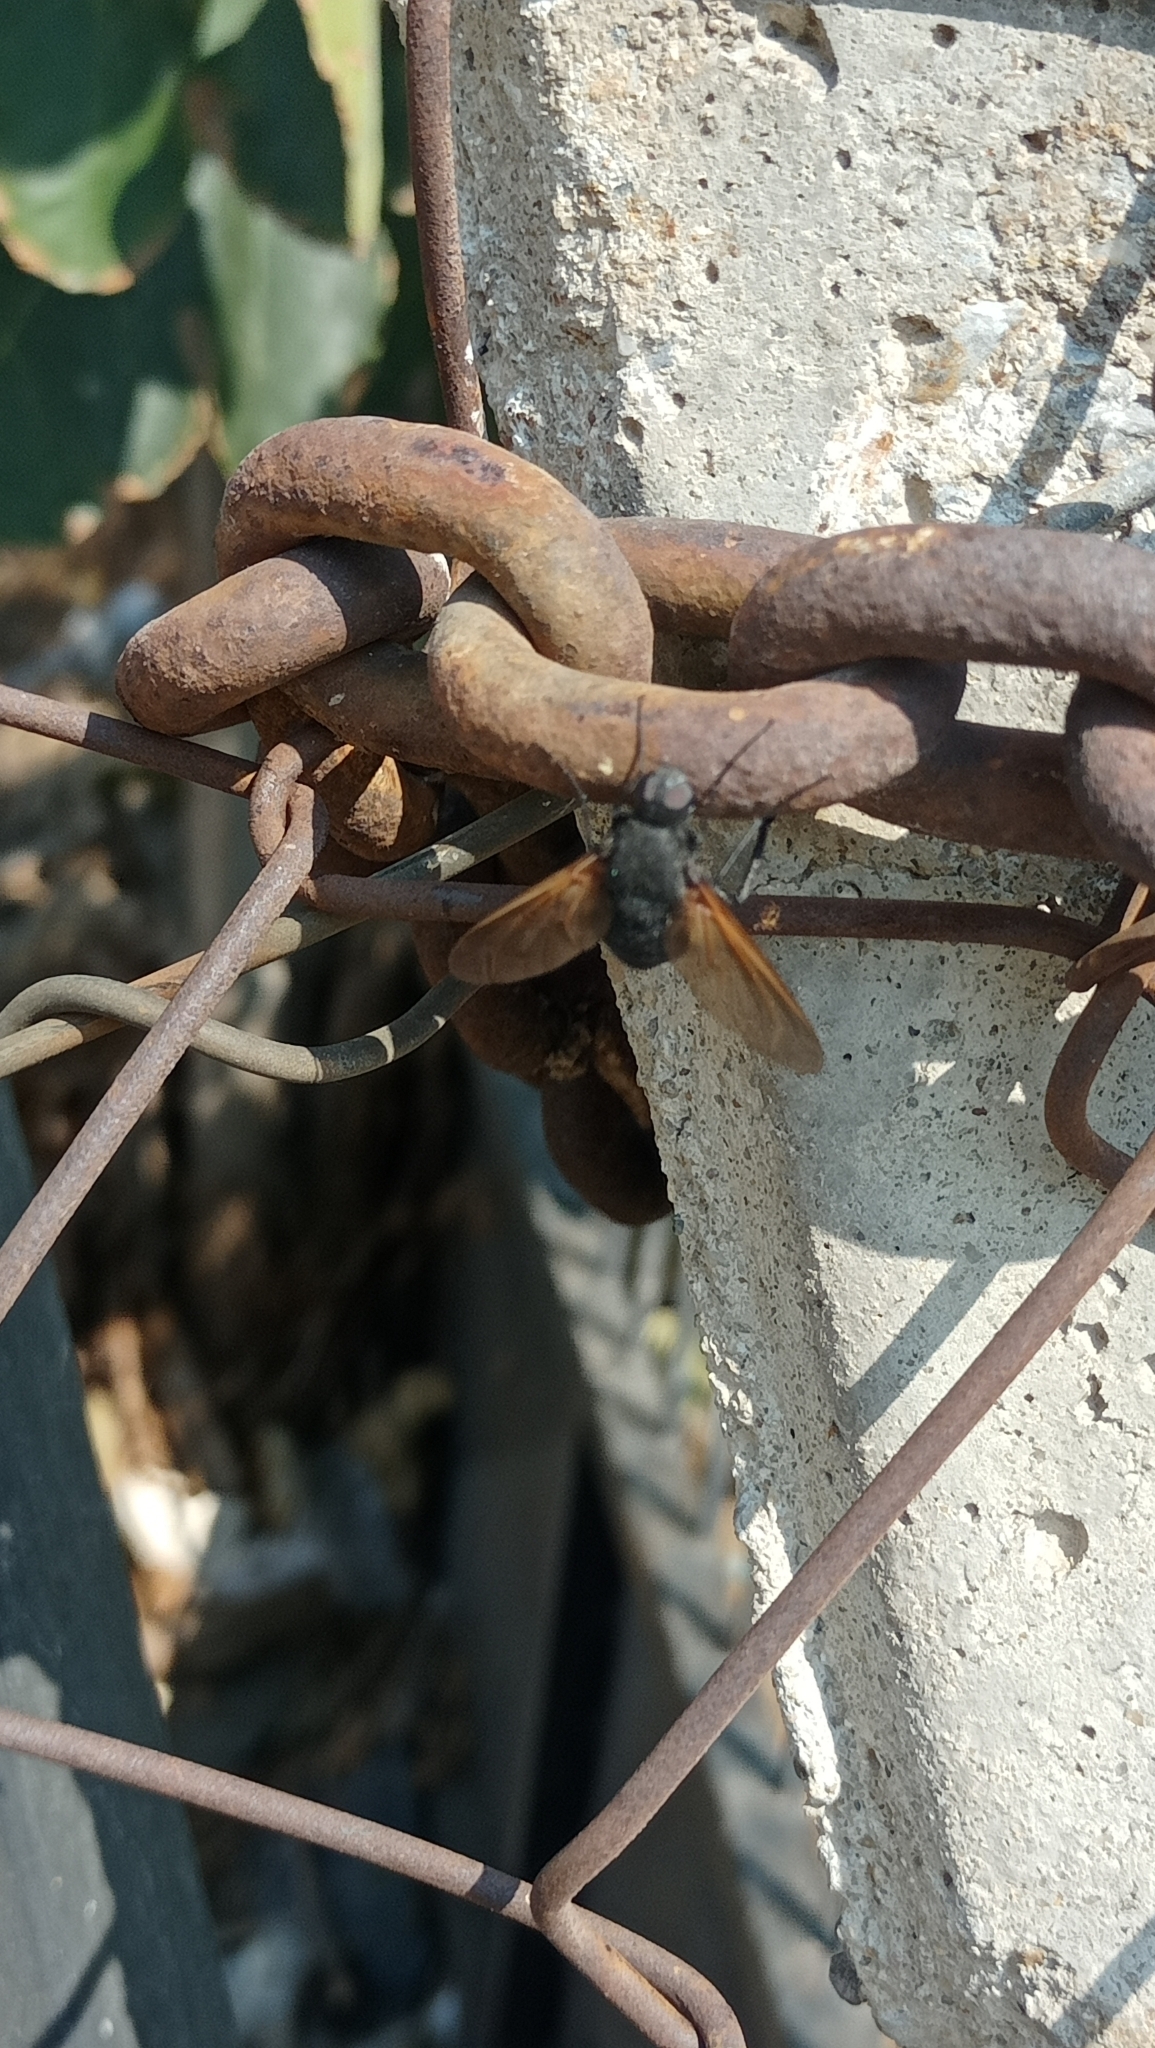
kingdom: Animalia
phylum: Arthropoda
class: Insecta
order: Diptera
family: Bombyliidae
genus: Satyramoeba
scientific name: Satyramoeba hetrusca
